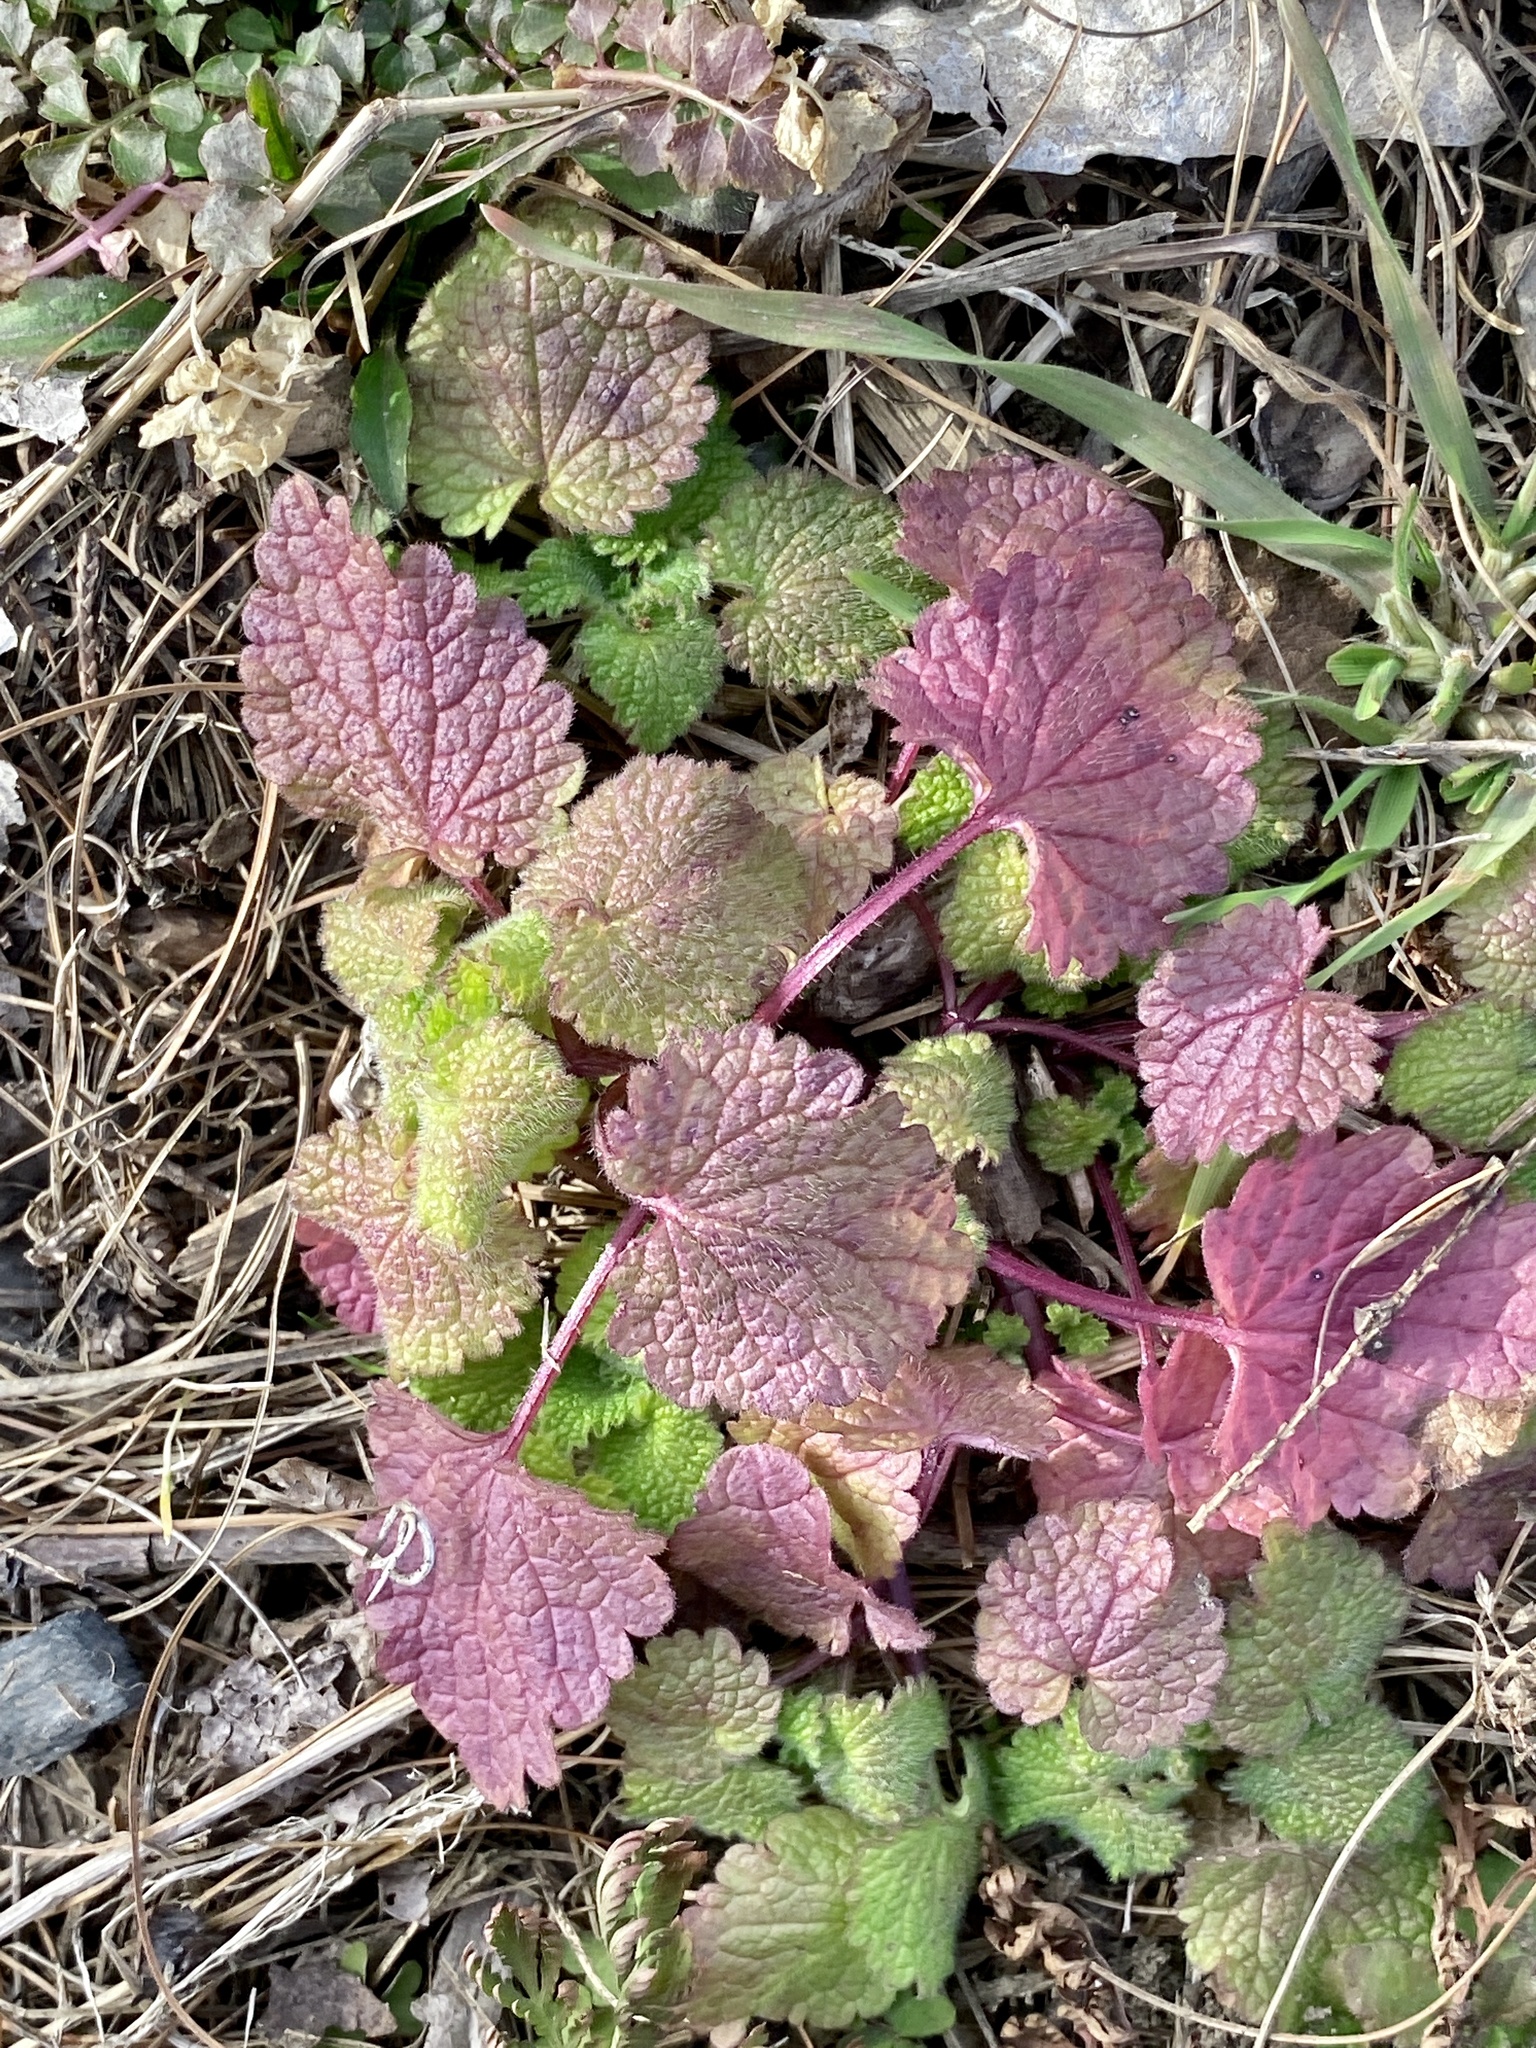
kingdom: Plantae
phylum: Tracheophyta
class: Magnoliopsida
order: Lamiales
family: Lamiaceae
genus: Lamium
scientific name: Lamium purpureum
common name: Red dead-nettle
